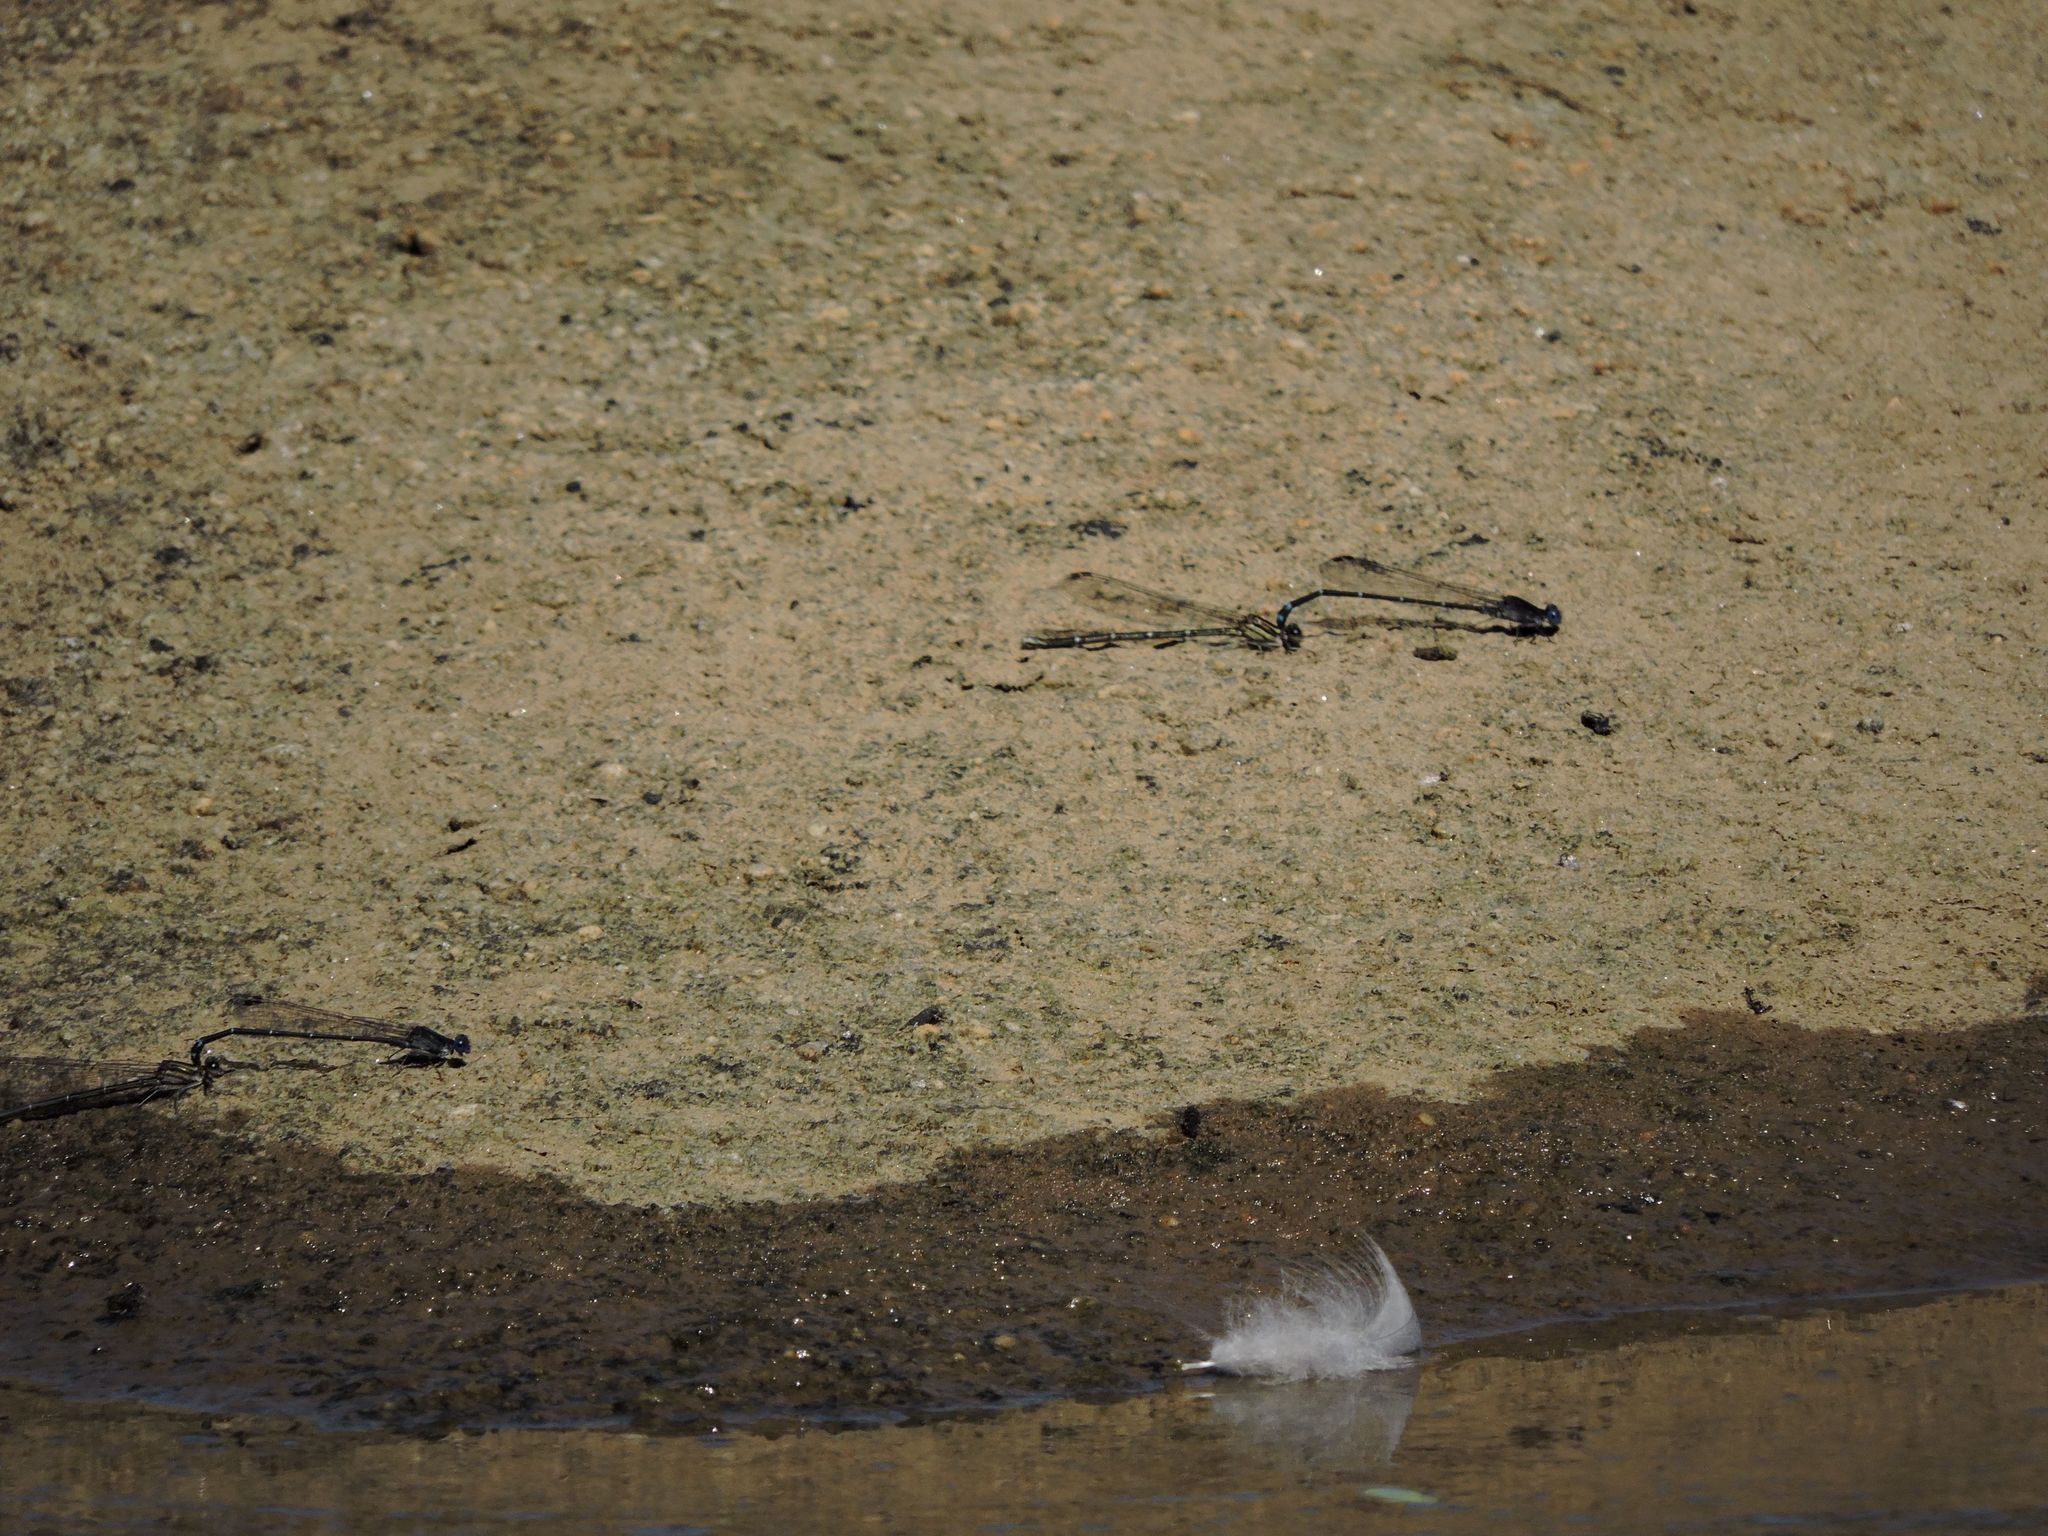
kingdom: Animalia
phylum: Arthropoda
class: Insecta
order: Odonata
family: Coenagrionidae
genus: Argia
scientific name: Argia translata
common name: Dusky dancer
